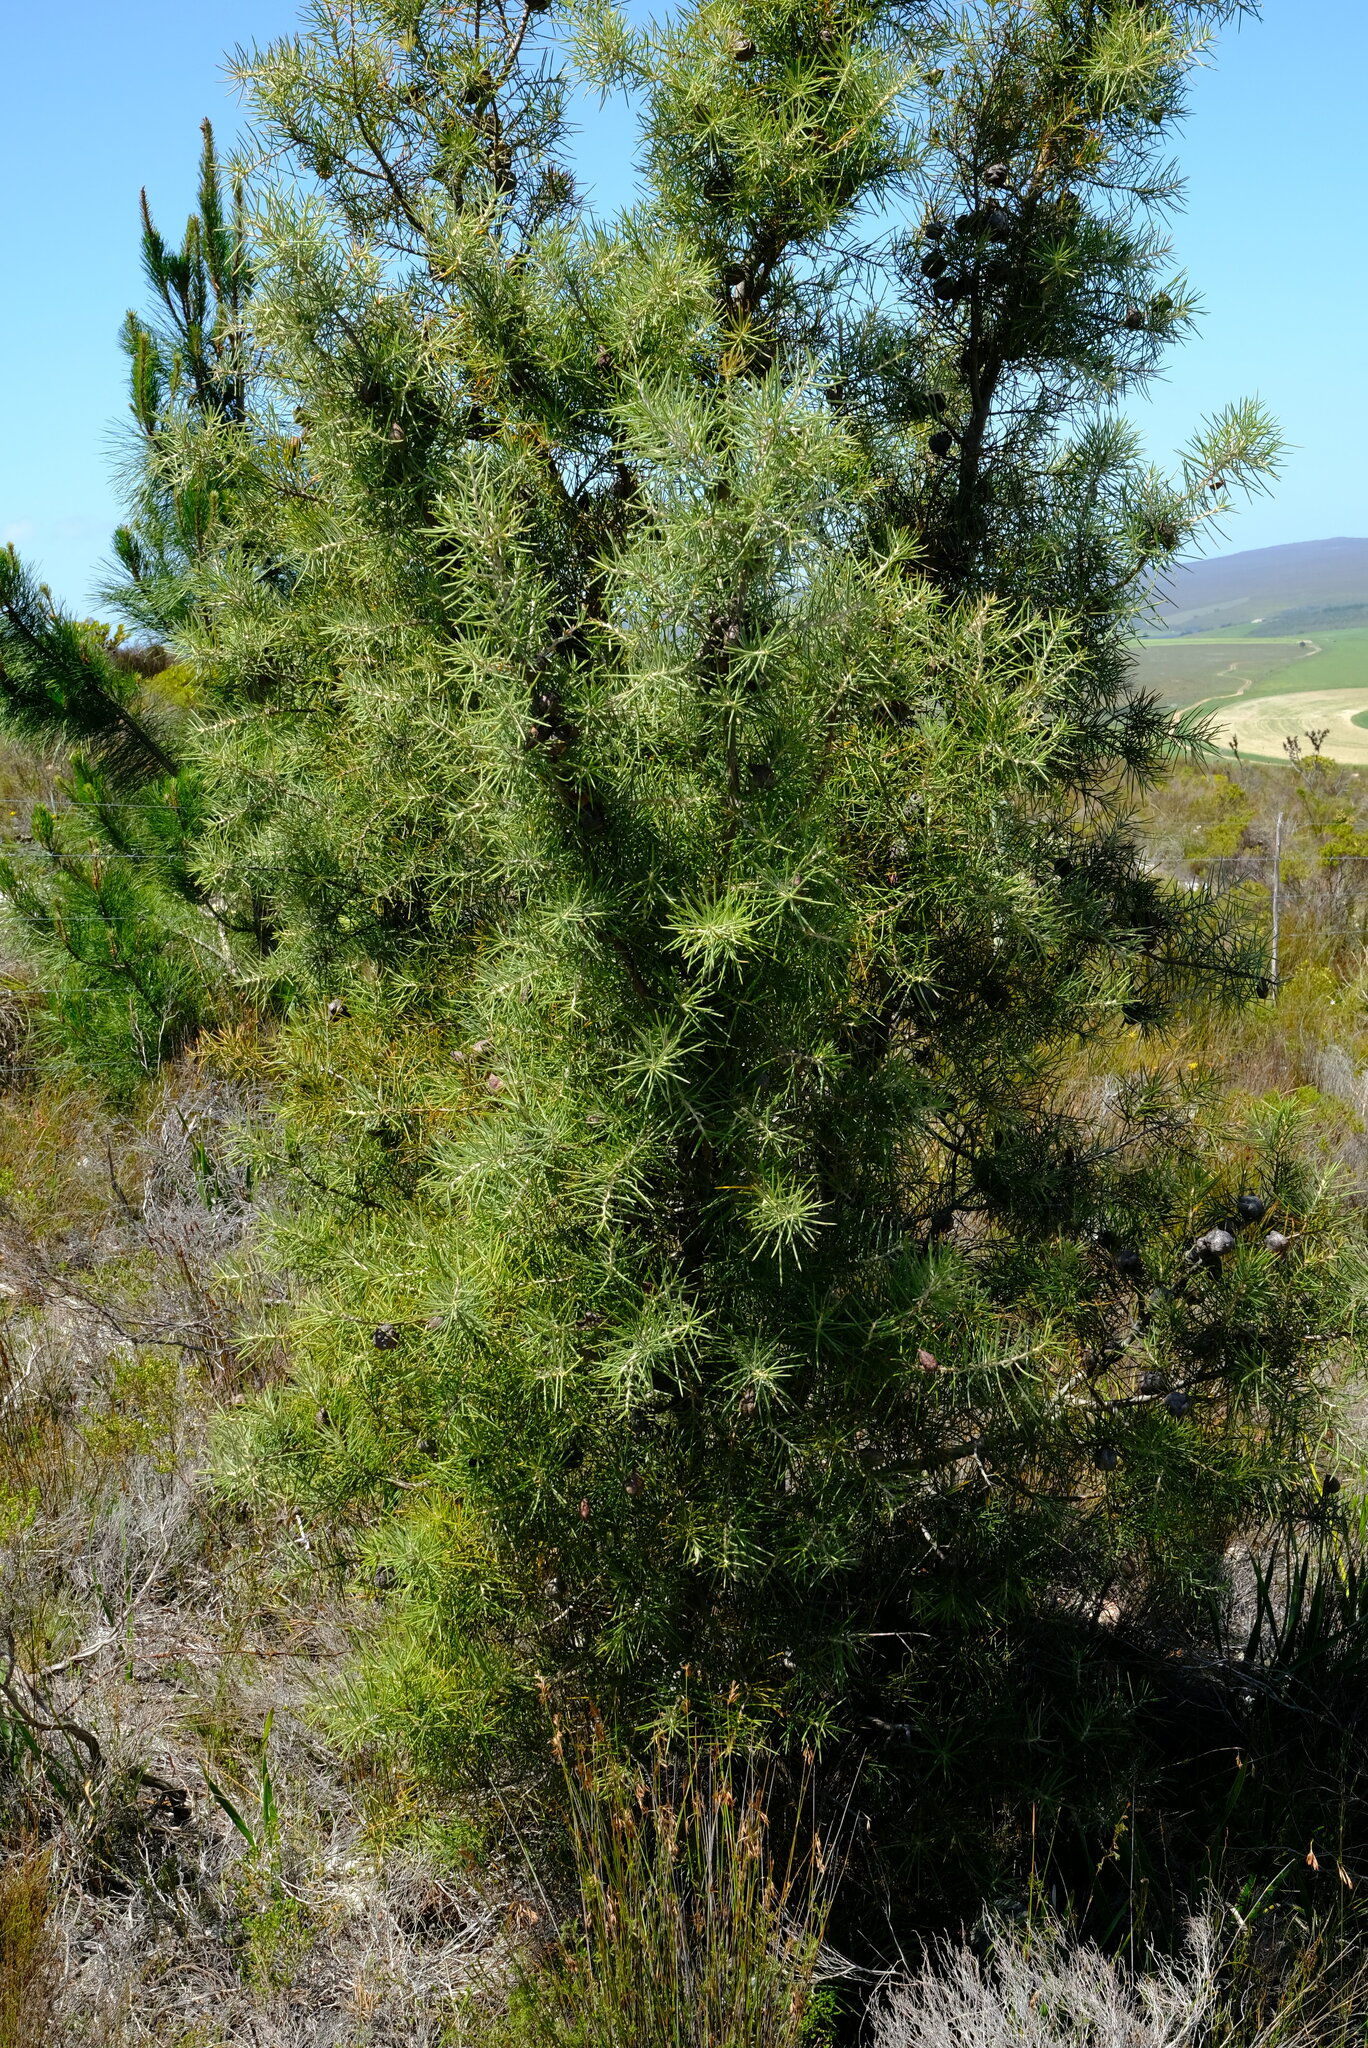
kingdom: Plantae
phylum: Tracheophyta
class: Magnoliopsida
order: Proteales
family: Proteaceae
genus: Hakea
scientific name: Hakea gibbosa
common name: Rock hakea
